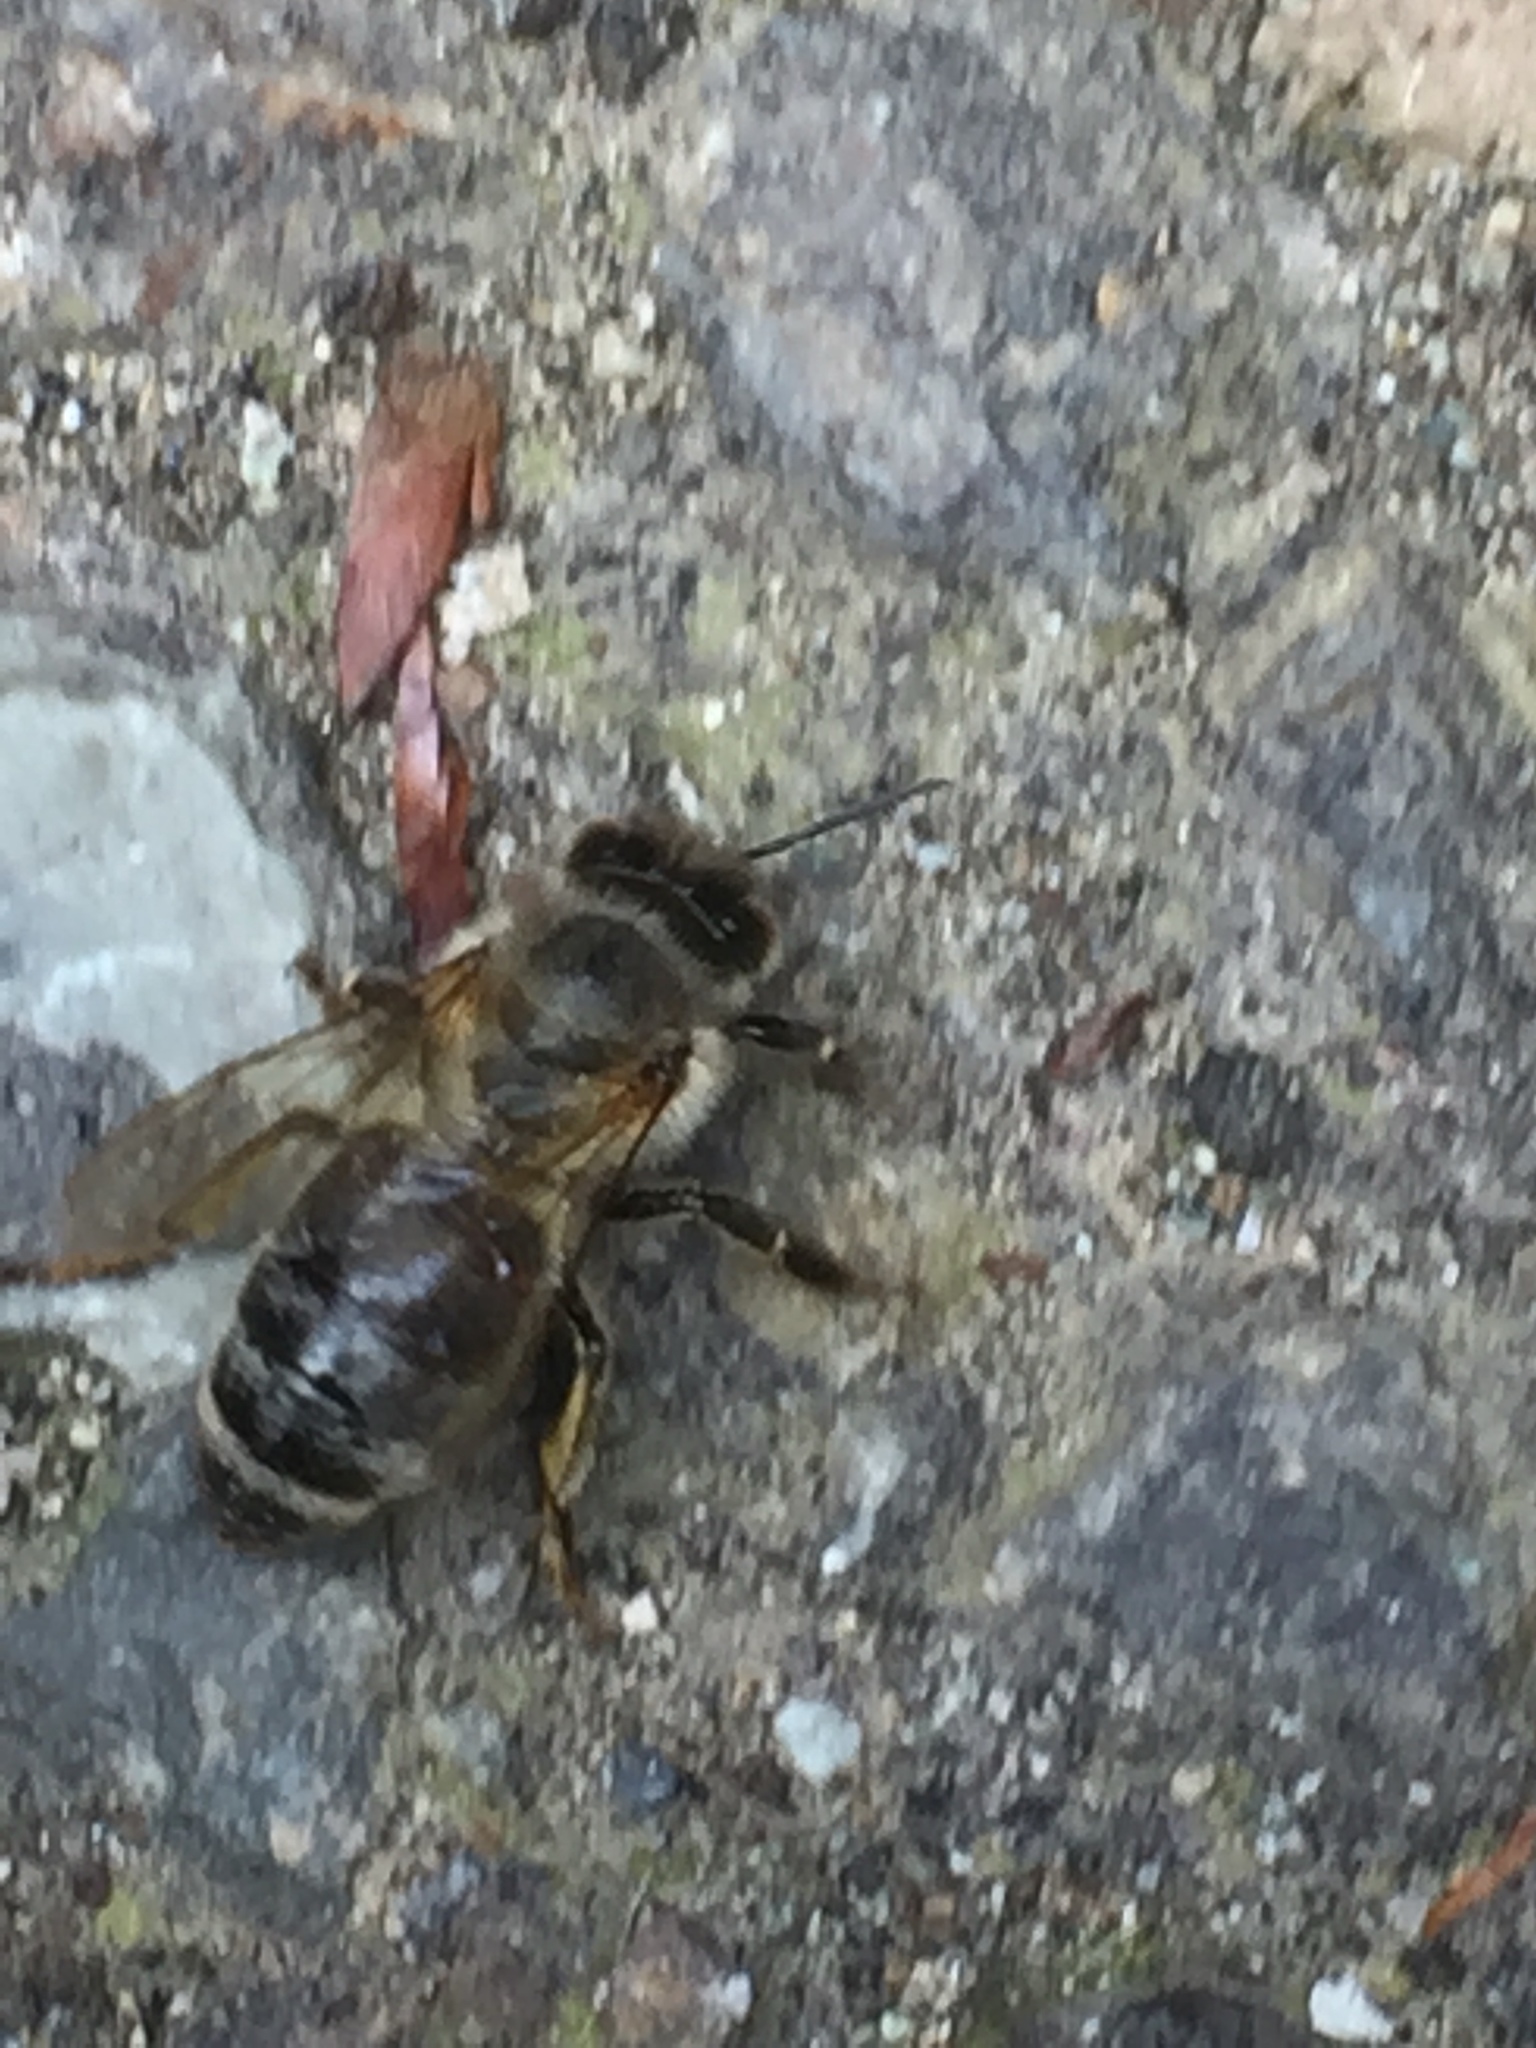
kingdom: Animalia
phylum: Arthropoda
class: Insecta
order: Hymenoptera
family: Apidae
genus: Apis
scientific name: Apis mellifera
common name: Honey bee
